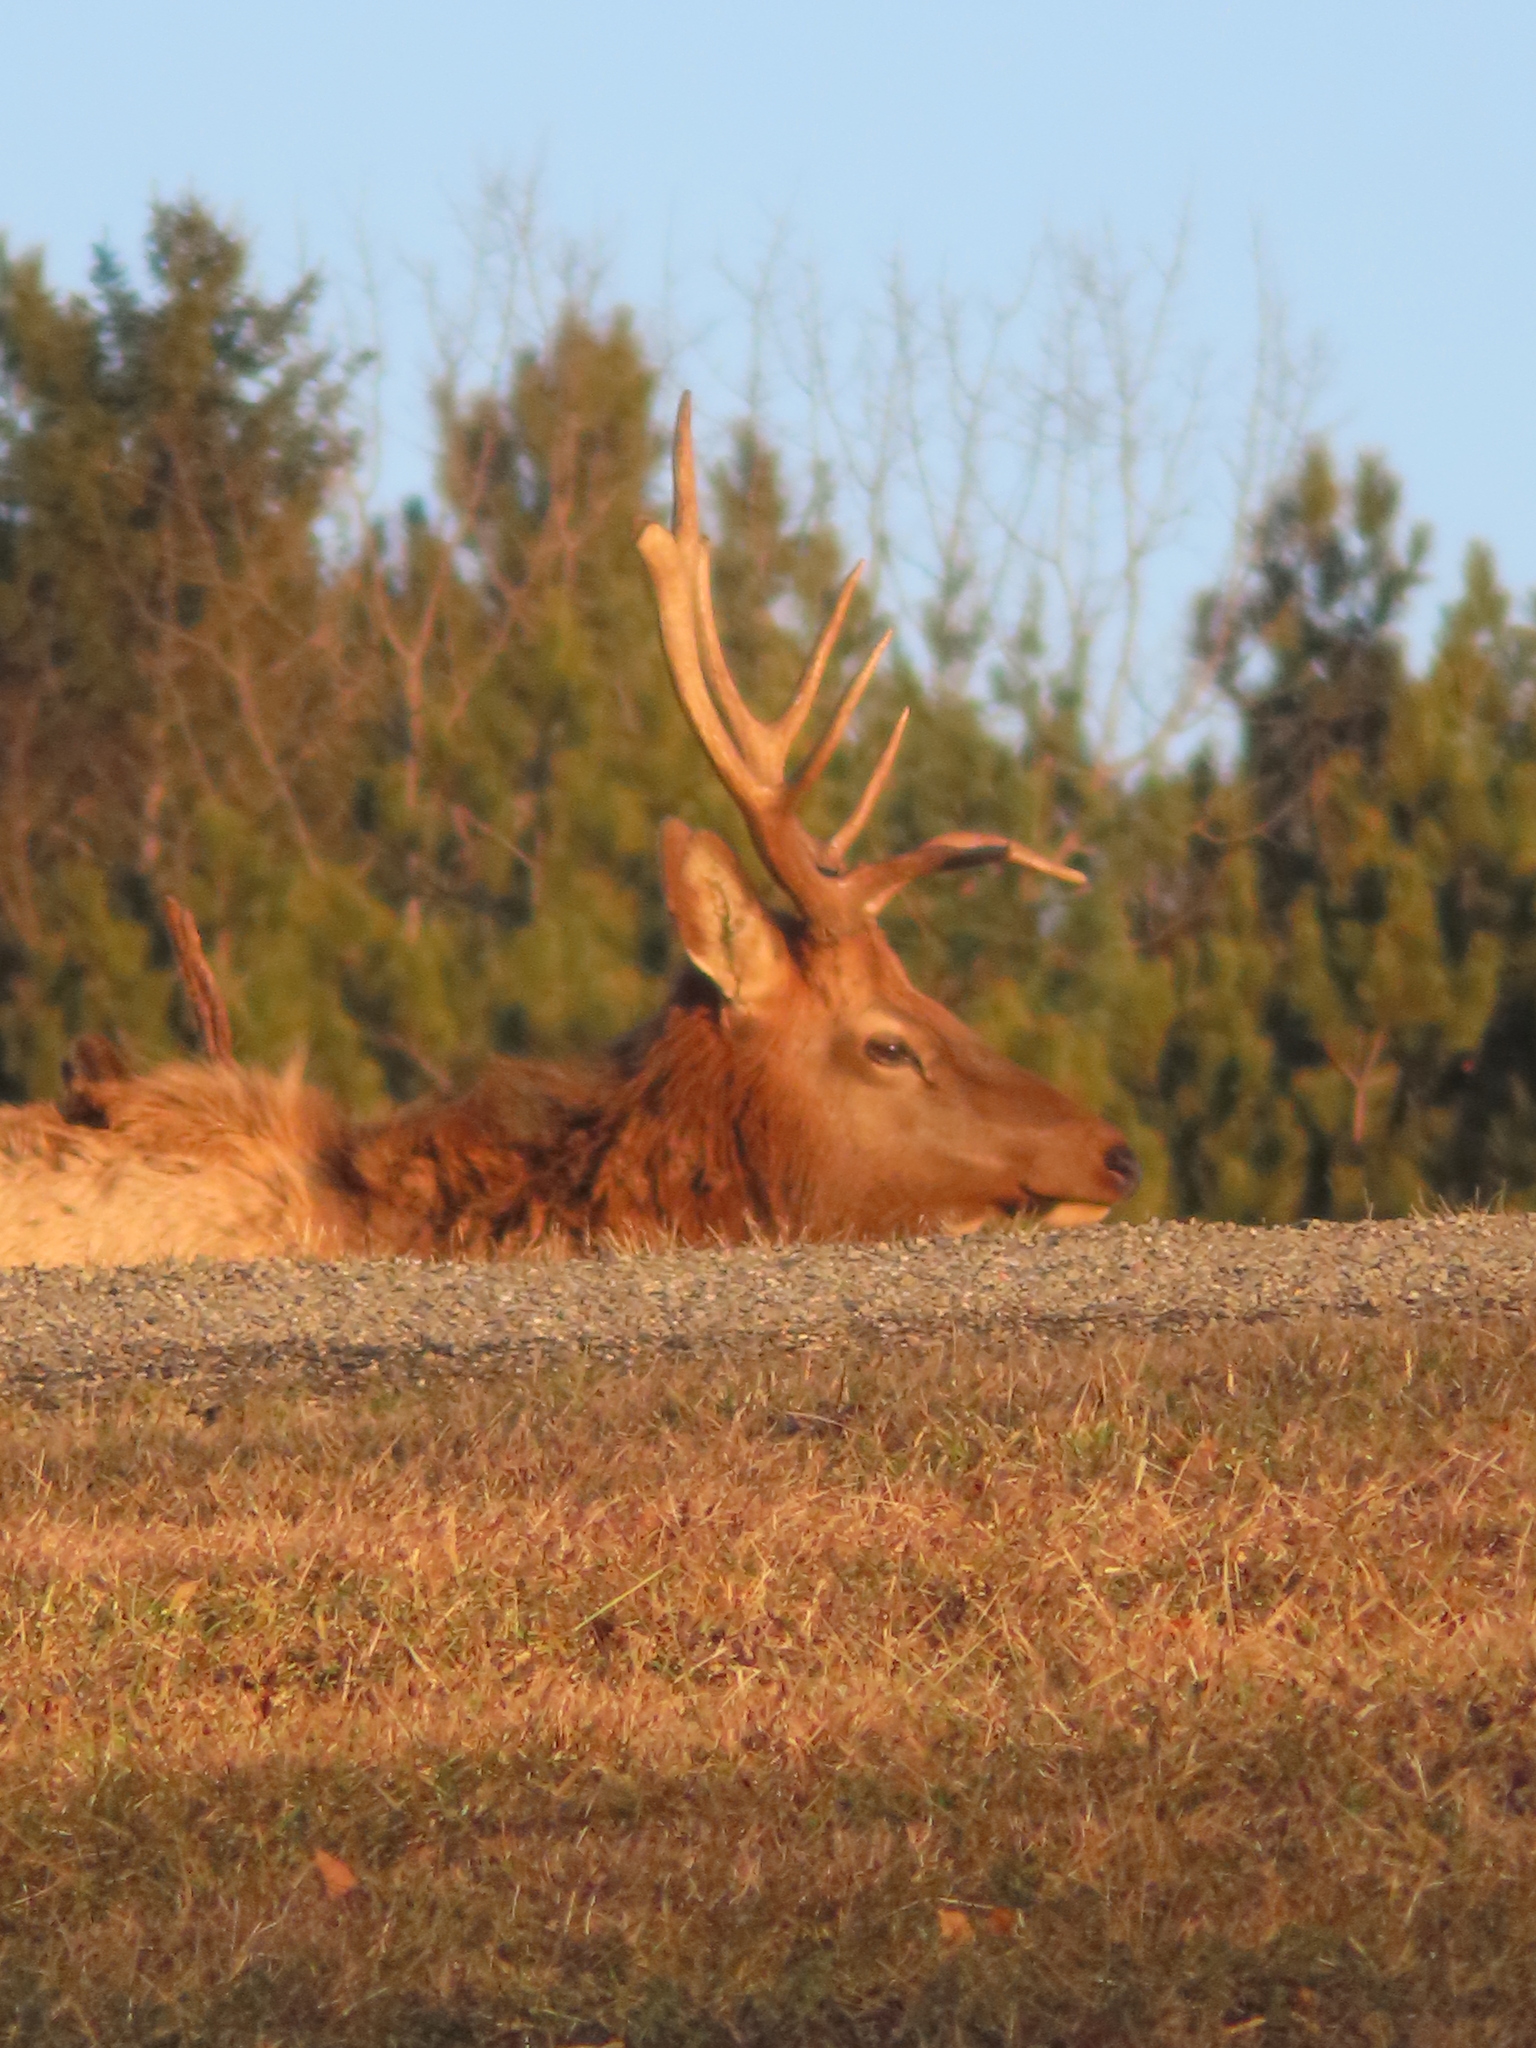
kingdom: Animalia
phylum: Chordata
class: Mammalia
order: Artiodactyla
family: Cervidae
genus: Cervus
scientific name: Cervus elaphus
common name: Red deer
